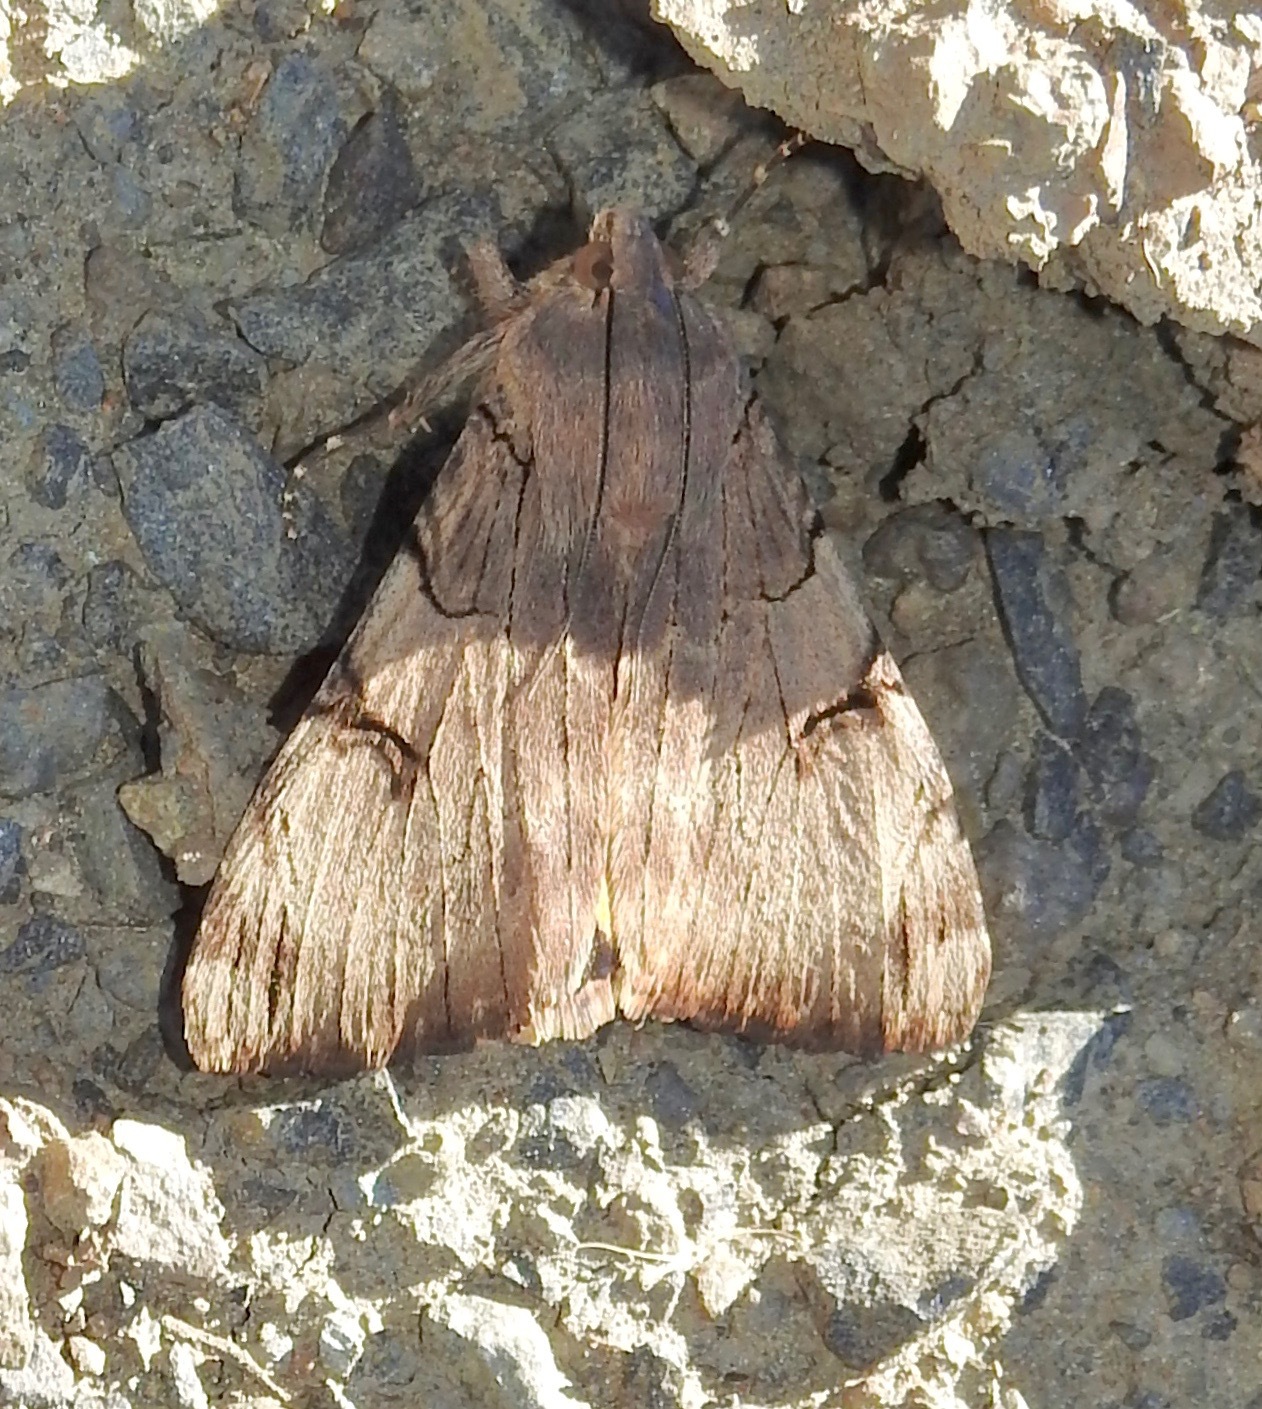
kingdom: Animalia
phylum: Arthropoda
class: Insecta
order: Lepidoptera
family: Erebidae
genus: Drasteria
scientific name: Drasteria ochracea
